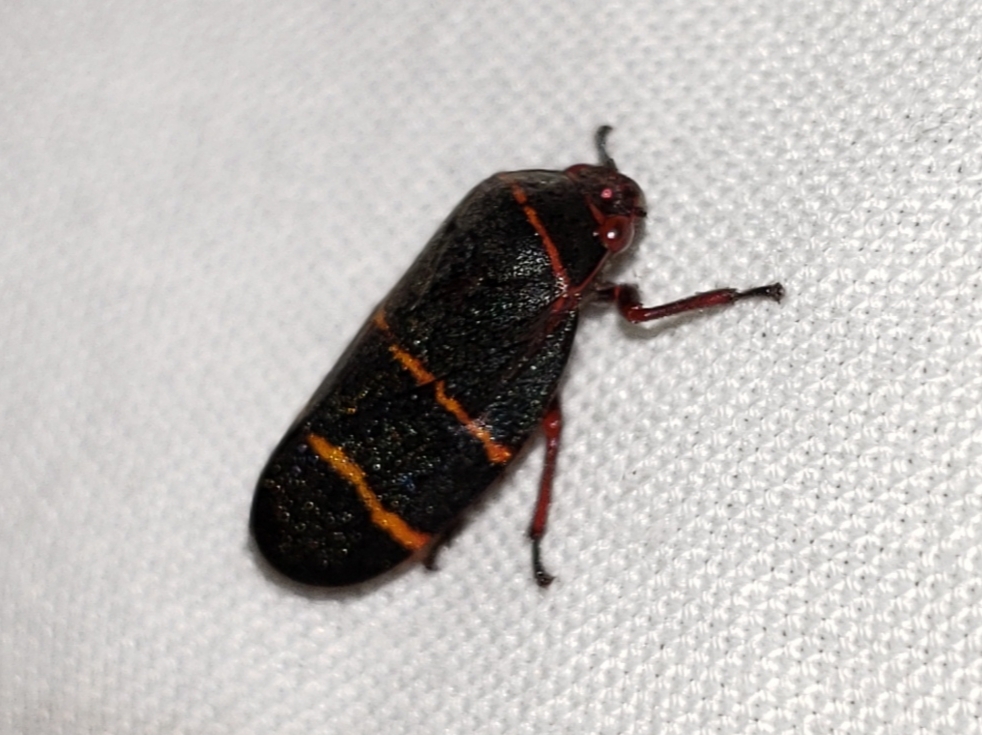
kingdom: Animalia
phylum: Arthropoda
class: Insecta
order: Hemiptera
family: Cercopidae
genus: Prosapia
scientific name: Prosapia bicincta
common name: Twolined spittlebug
